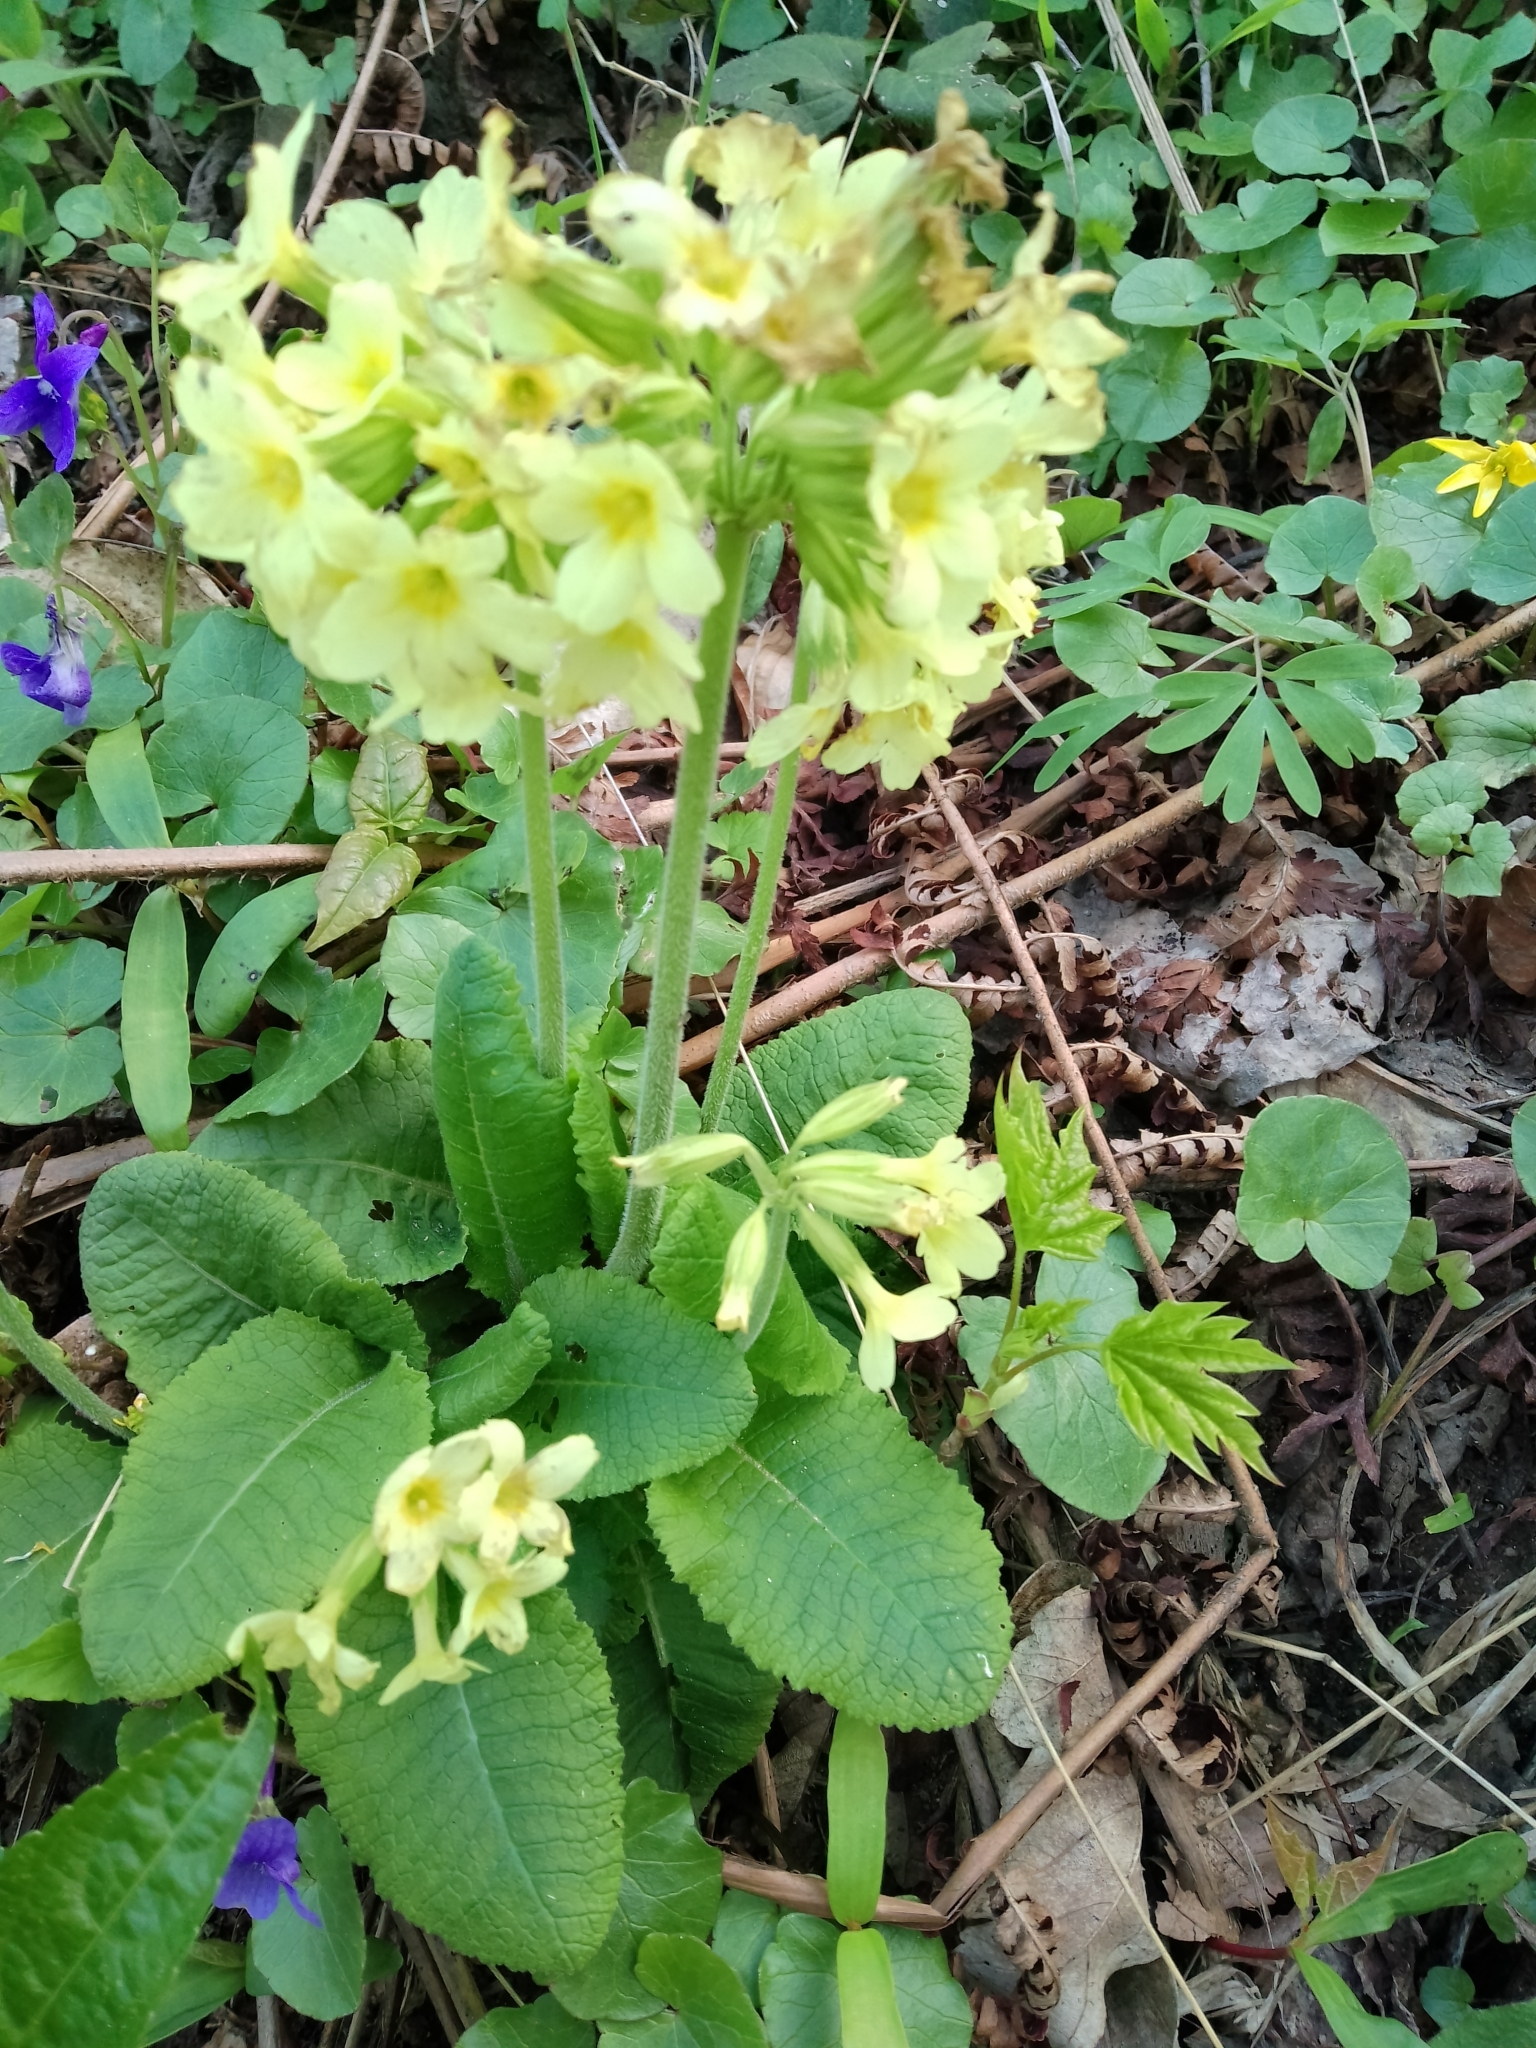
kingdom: Plantae
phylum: Tracheophyta
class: Magnoliopsida
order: Ericales
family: Primulaceae
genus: Primula
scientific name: Primula elatior
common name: Oxlip
